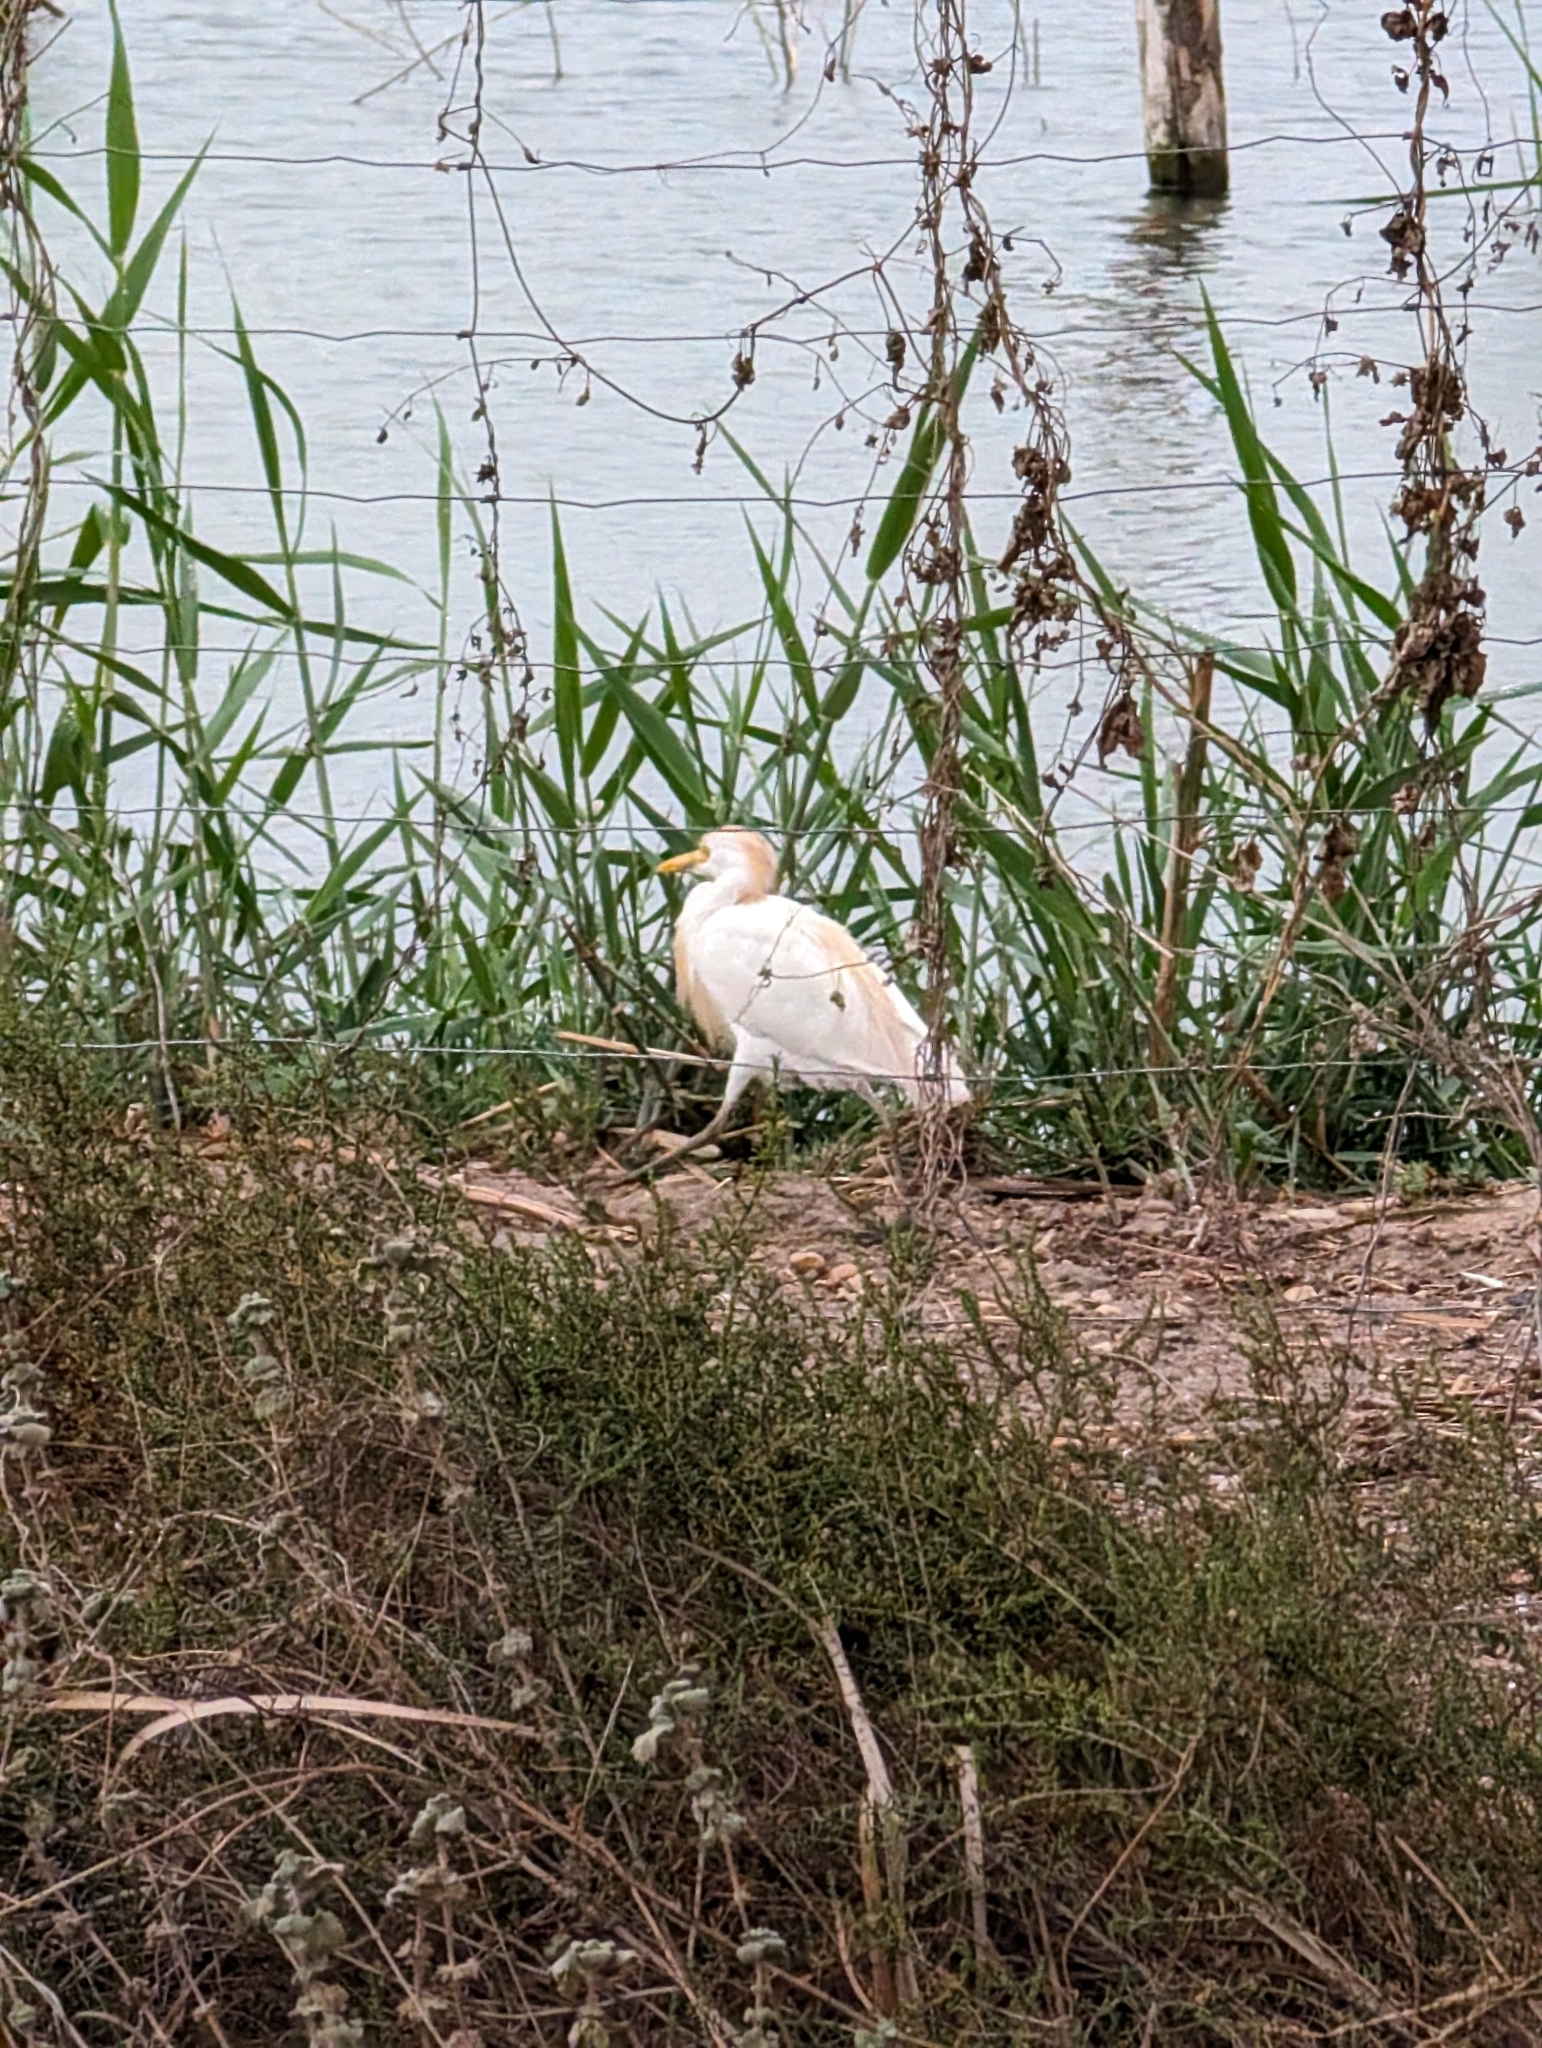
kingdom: Animalia
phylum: Chordata
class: Aves
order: Pelecaniformes
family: Ardeidae
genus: Bubulcus
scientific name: Bubulcus ibis
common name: Cattle egret
